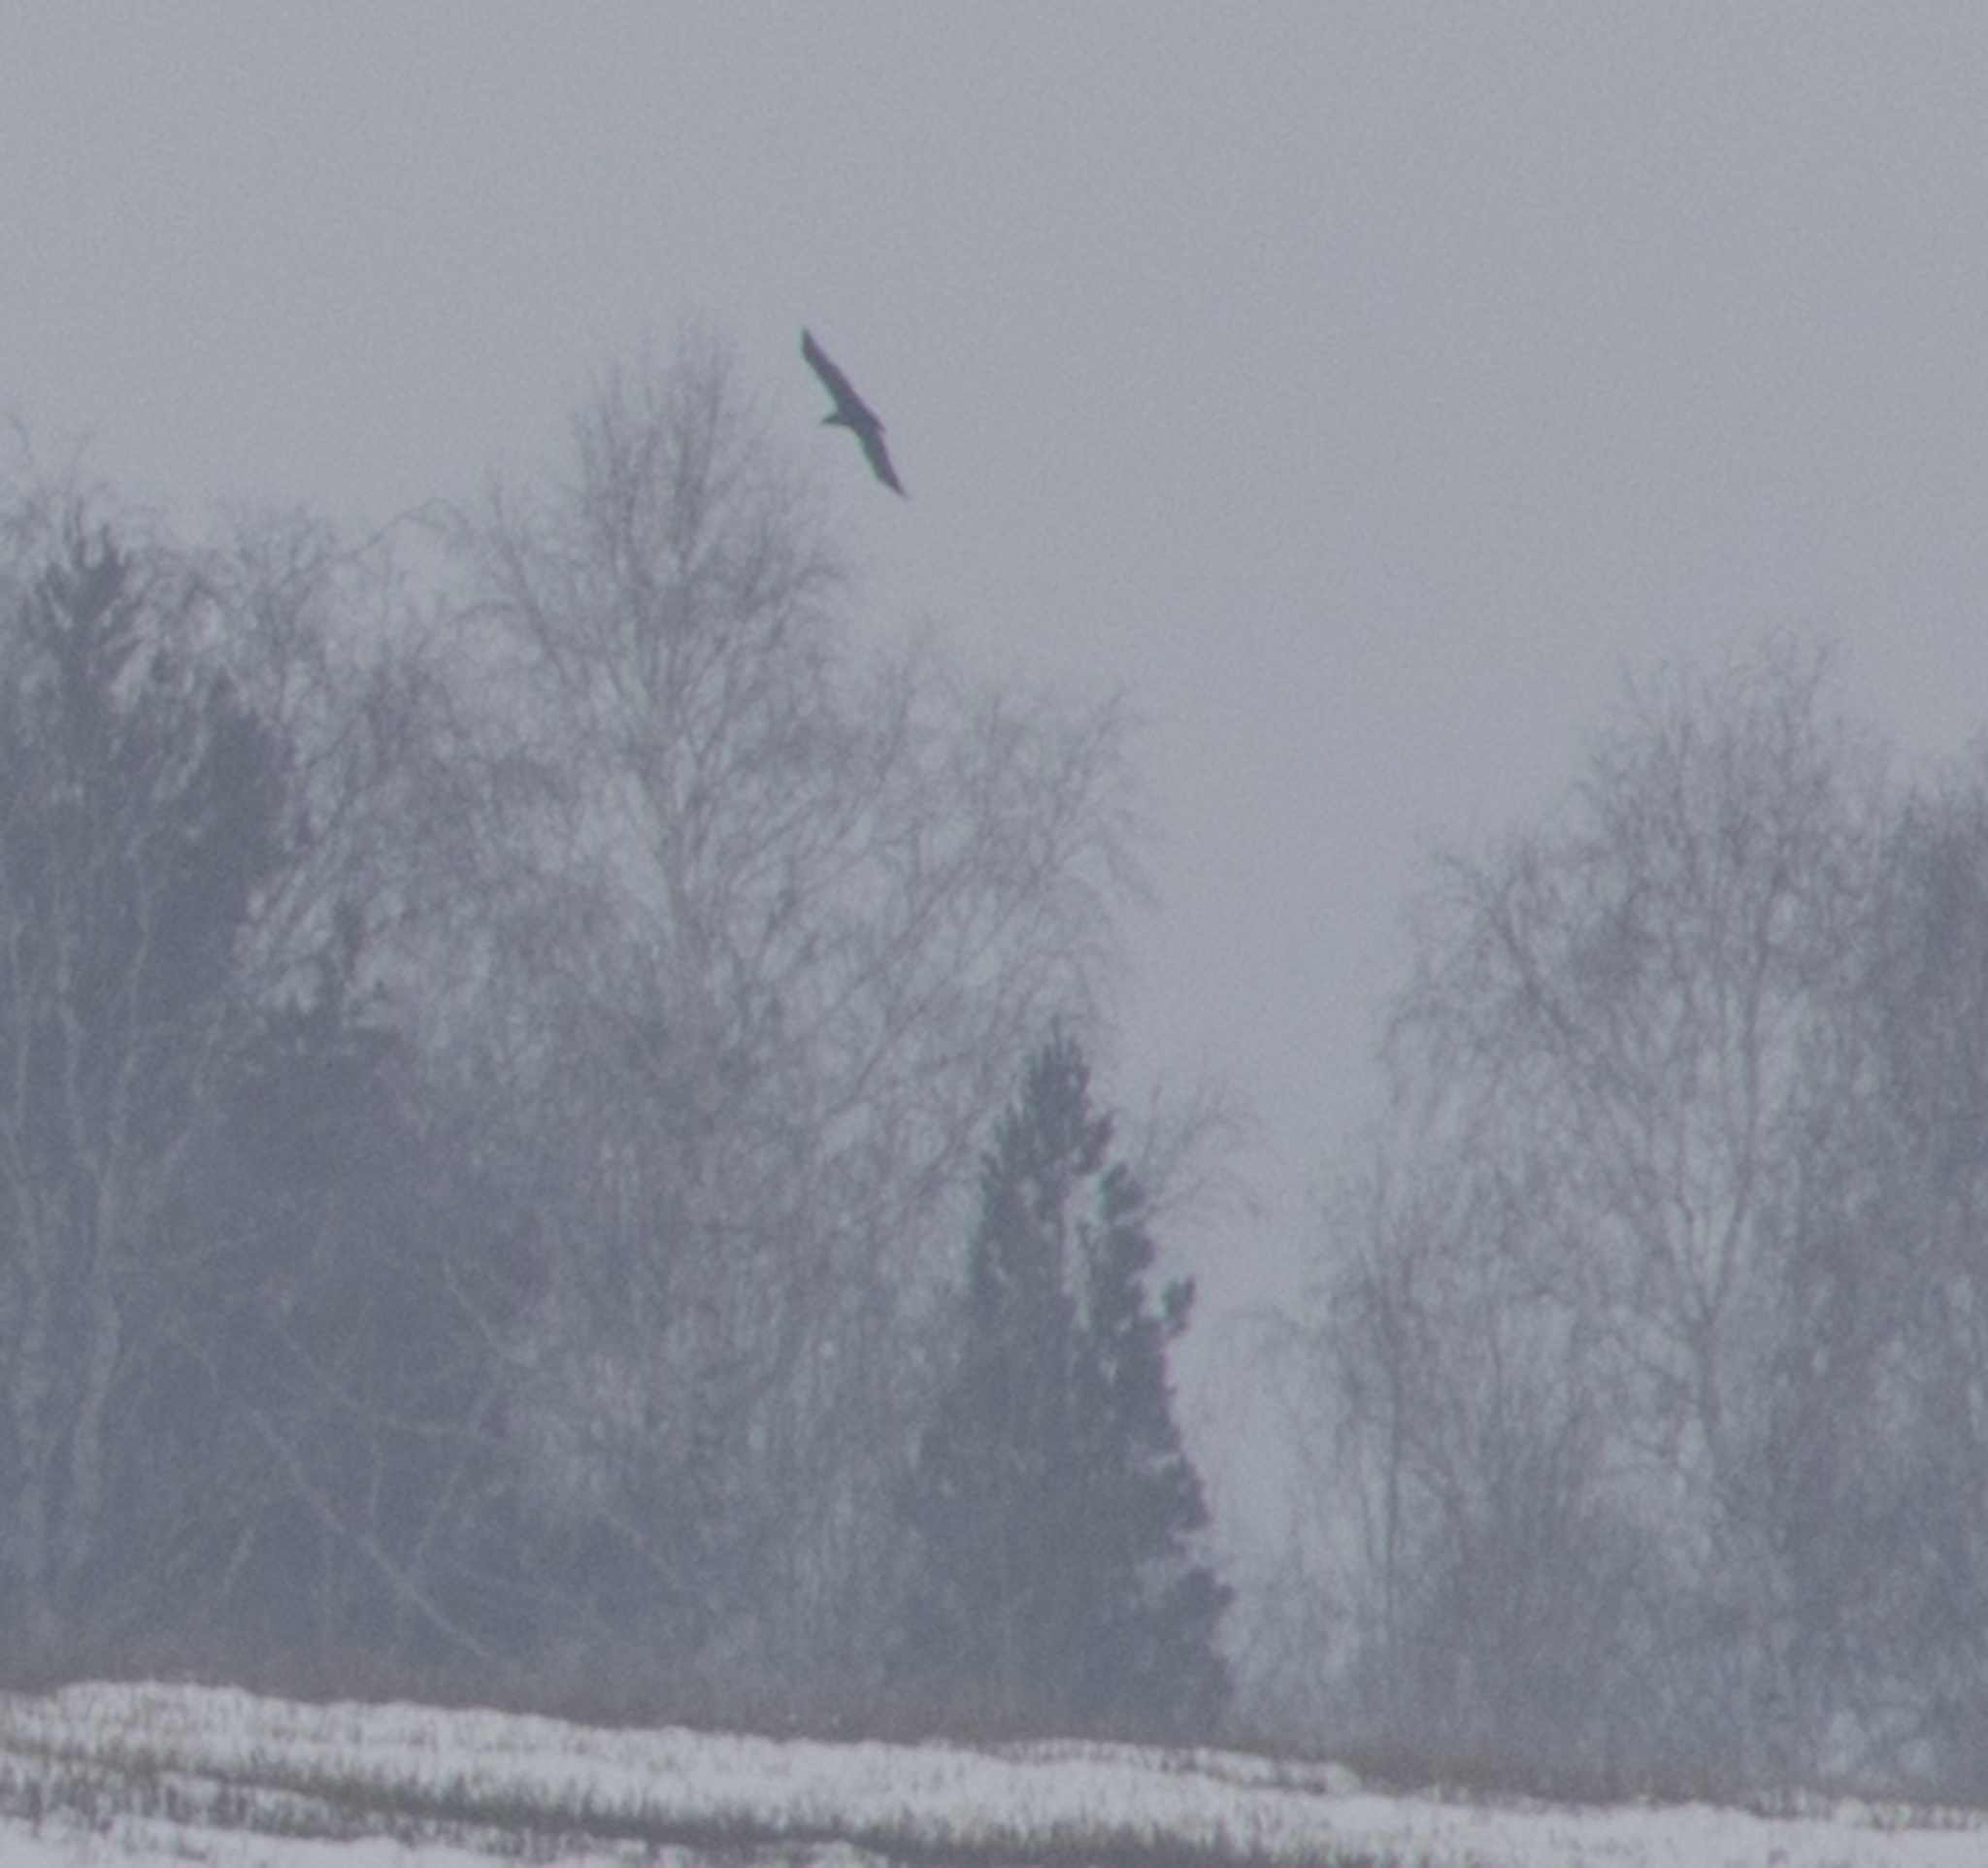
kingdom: Animalia
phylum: Chordata
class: Aves
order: Accipitriformes
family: Accipitridae
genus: Aquila
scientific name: Aquila heliaca
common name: Eastern imperial eagle
